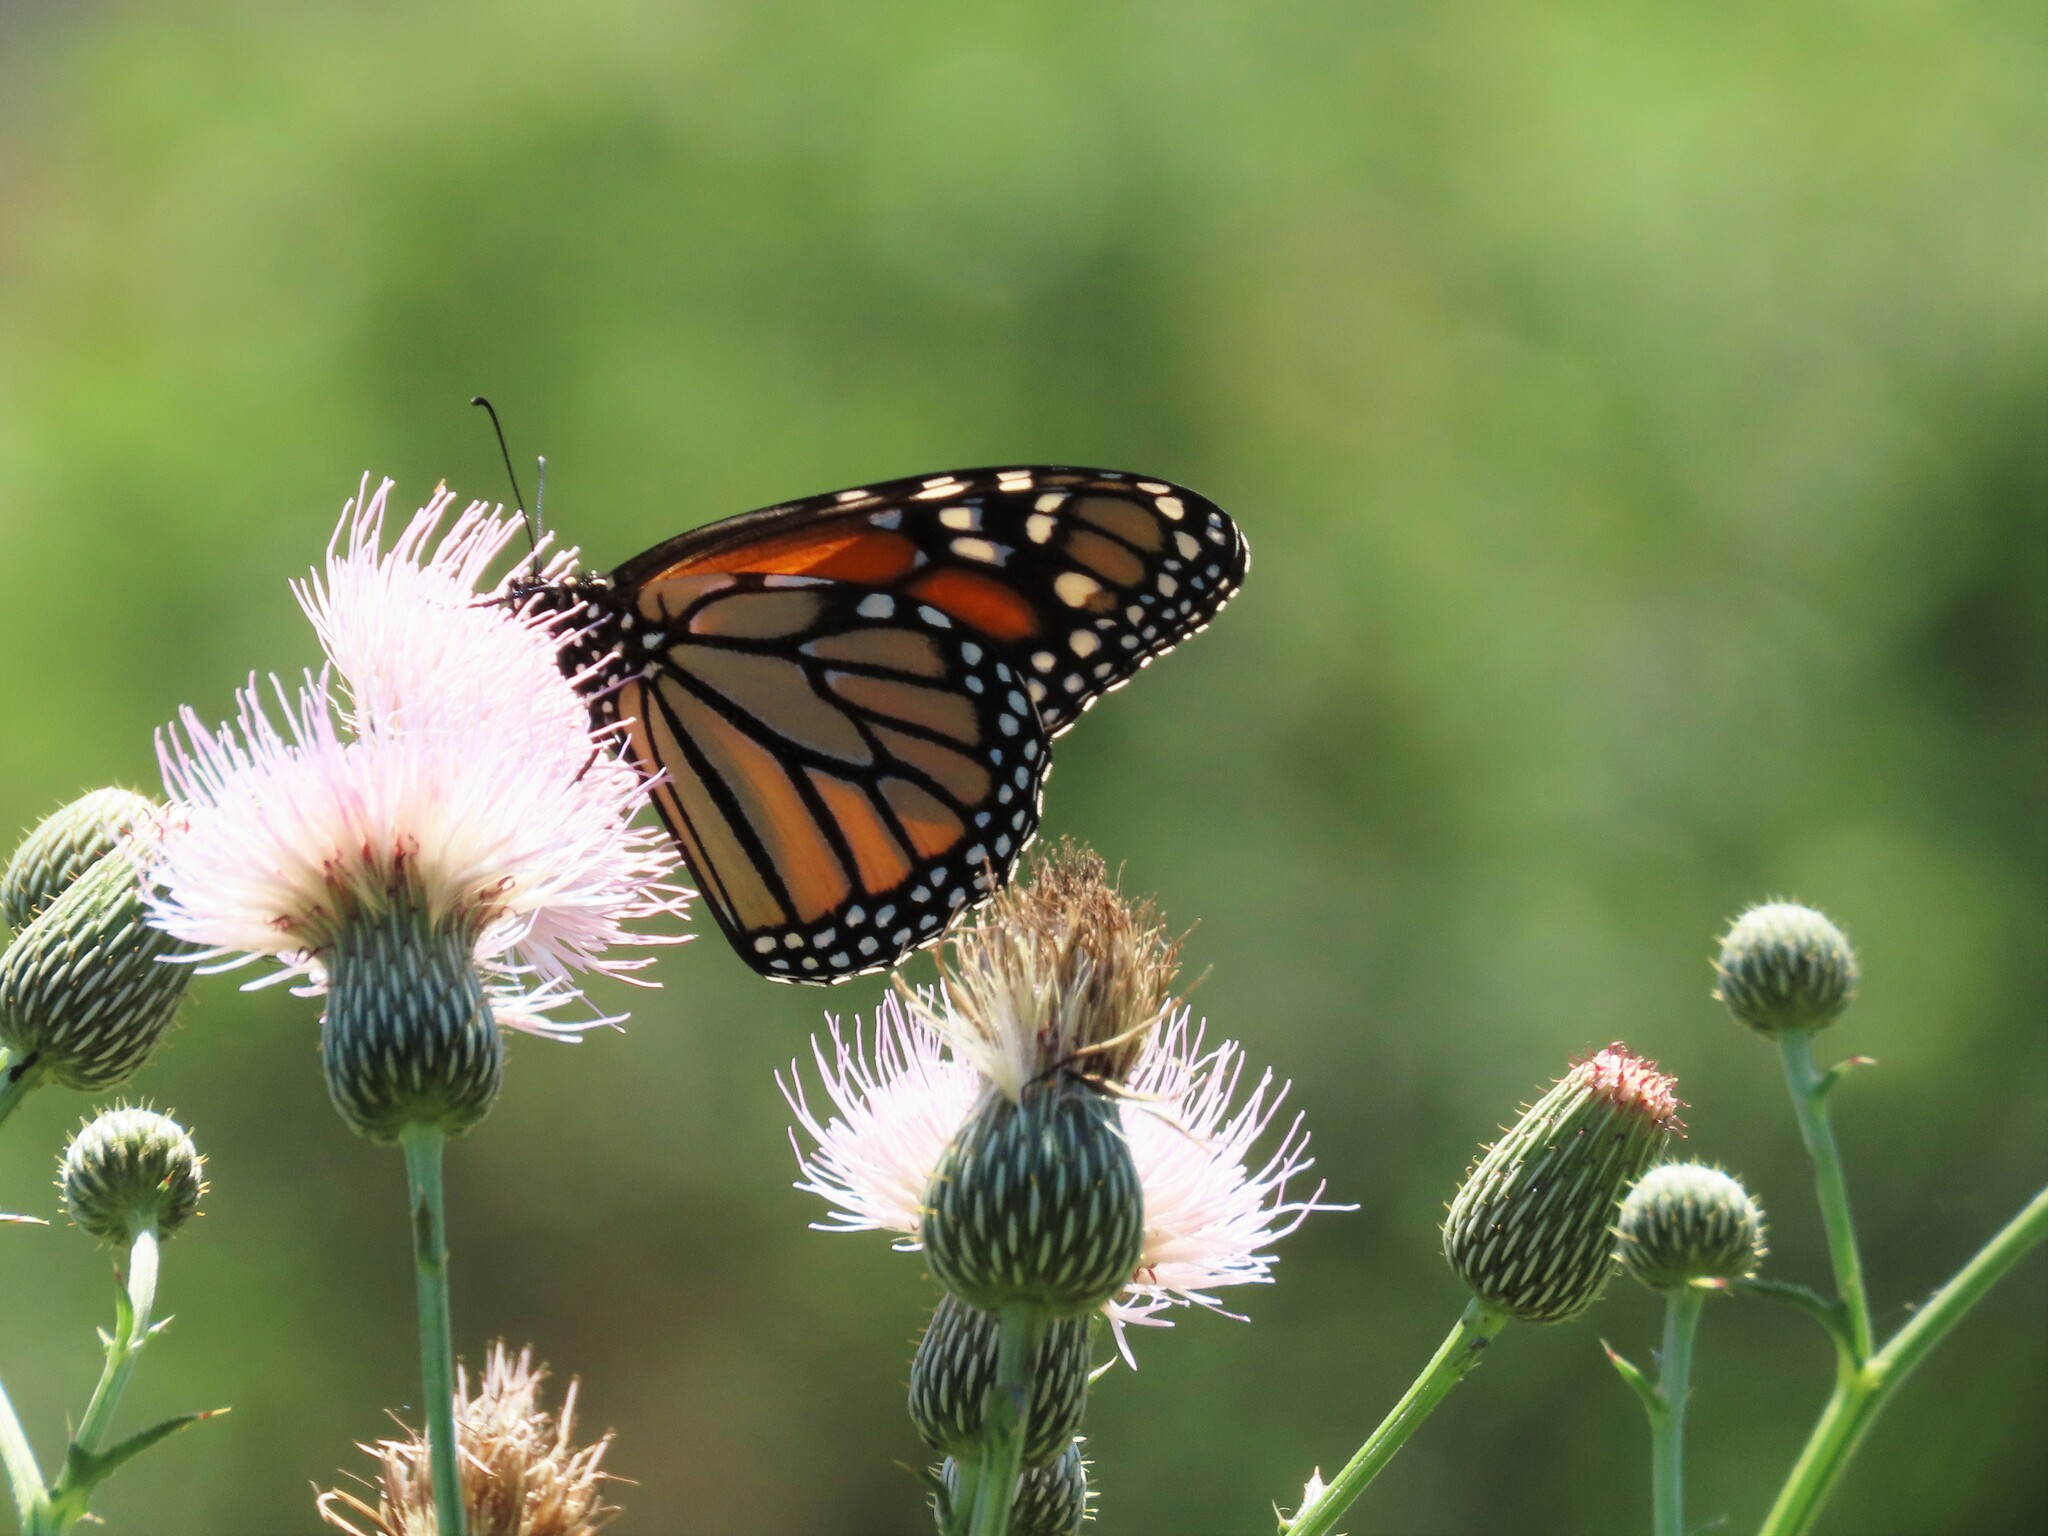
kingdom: Animalia
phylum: Arthropoda
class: Insecta
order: Lepidoptera
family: Nymphalidae
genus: Danaus
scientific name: Danaus plexippus
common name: Monarch
